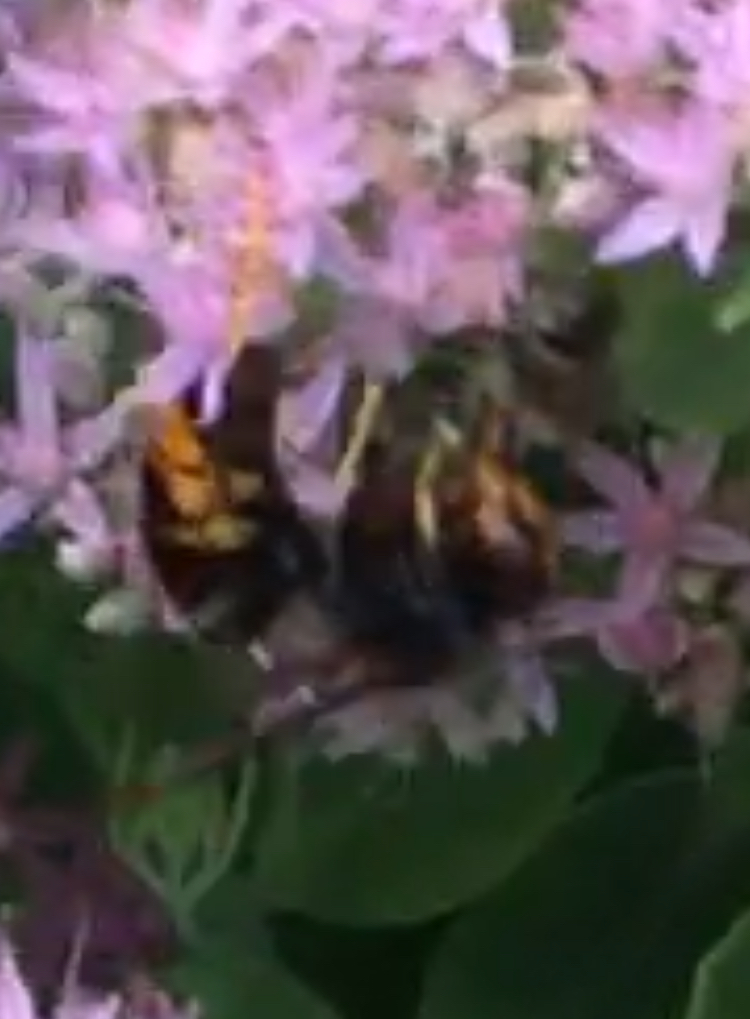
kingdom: Animalia
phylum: Arthropoda
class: Insecta
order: Hymenoptera
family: Vespidae
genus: Vespa
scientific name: Vespa velutina
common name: Asian hornet
